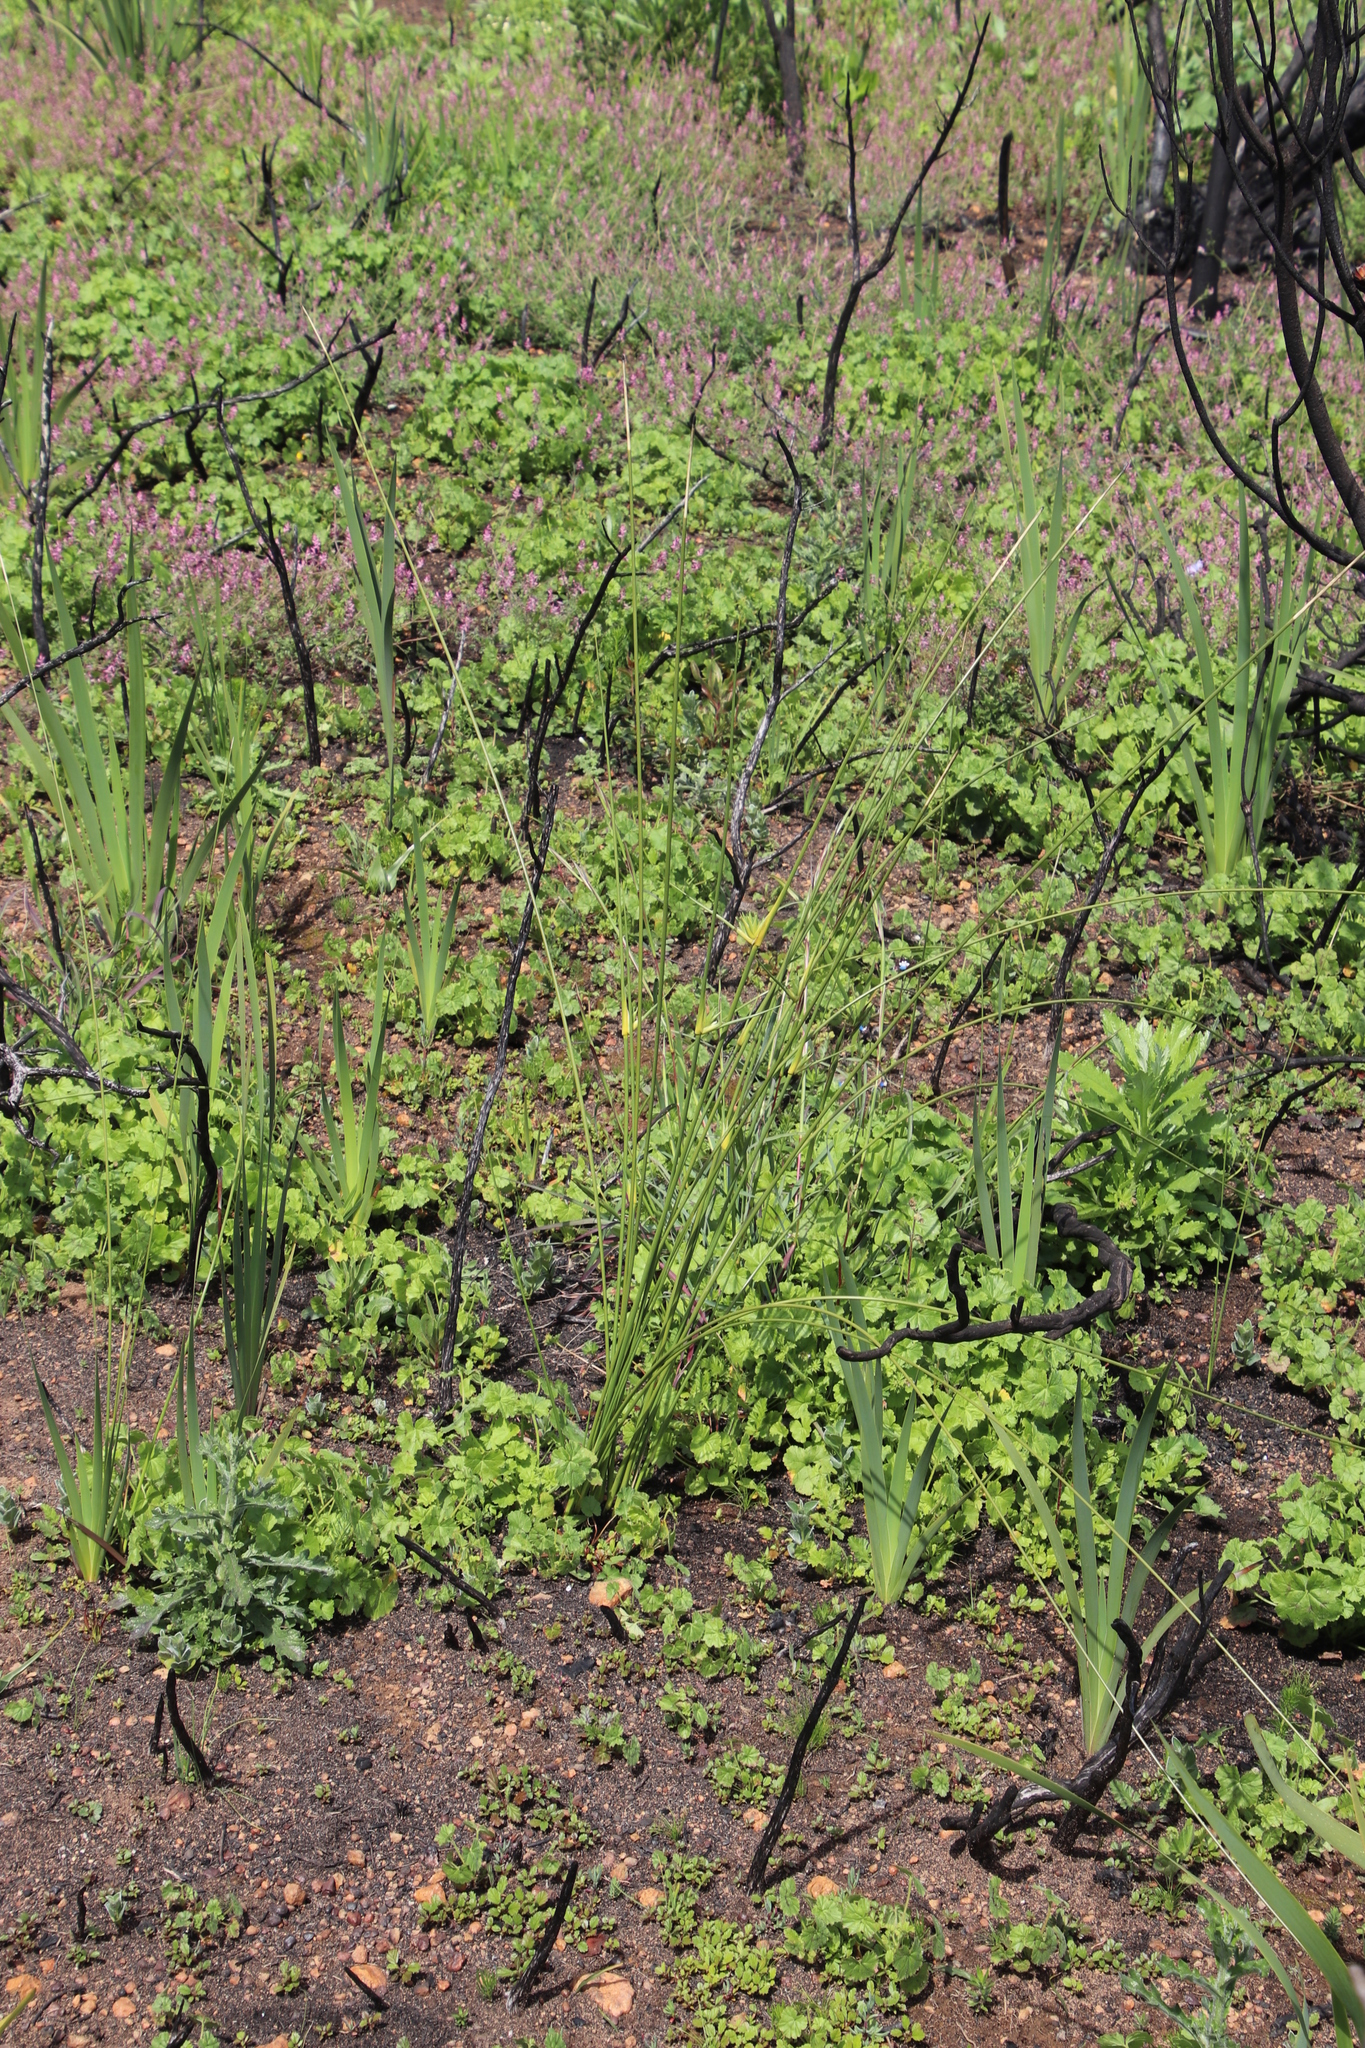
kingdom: Plantae
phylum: Tracheophyta
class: Liliopsida
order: Asparagales
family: Iridaceae
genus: Bobartia
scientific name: Bobartia indica
